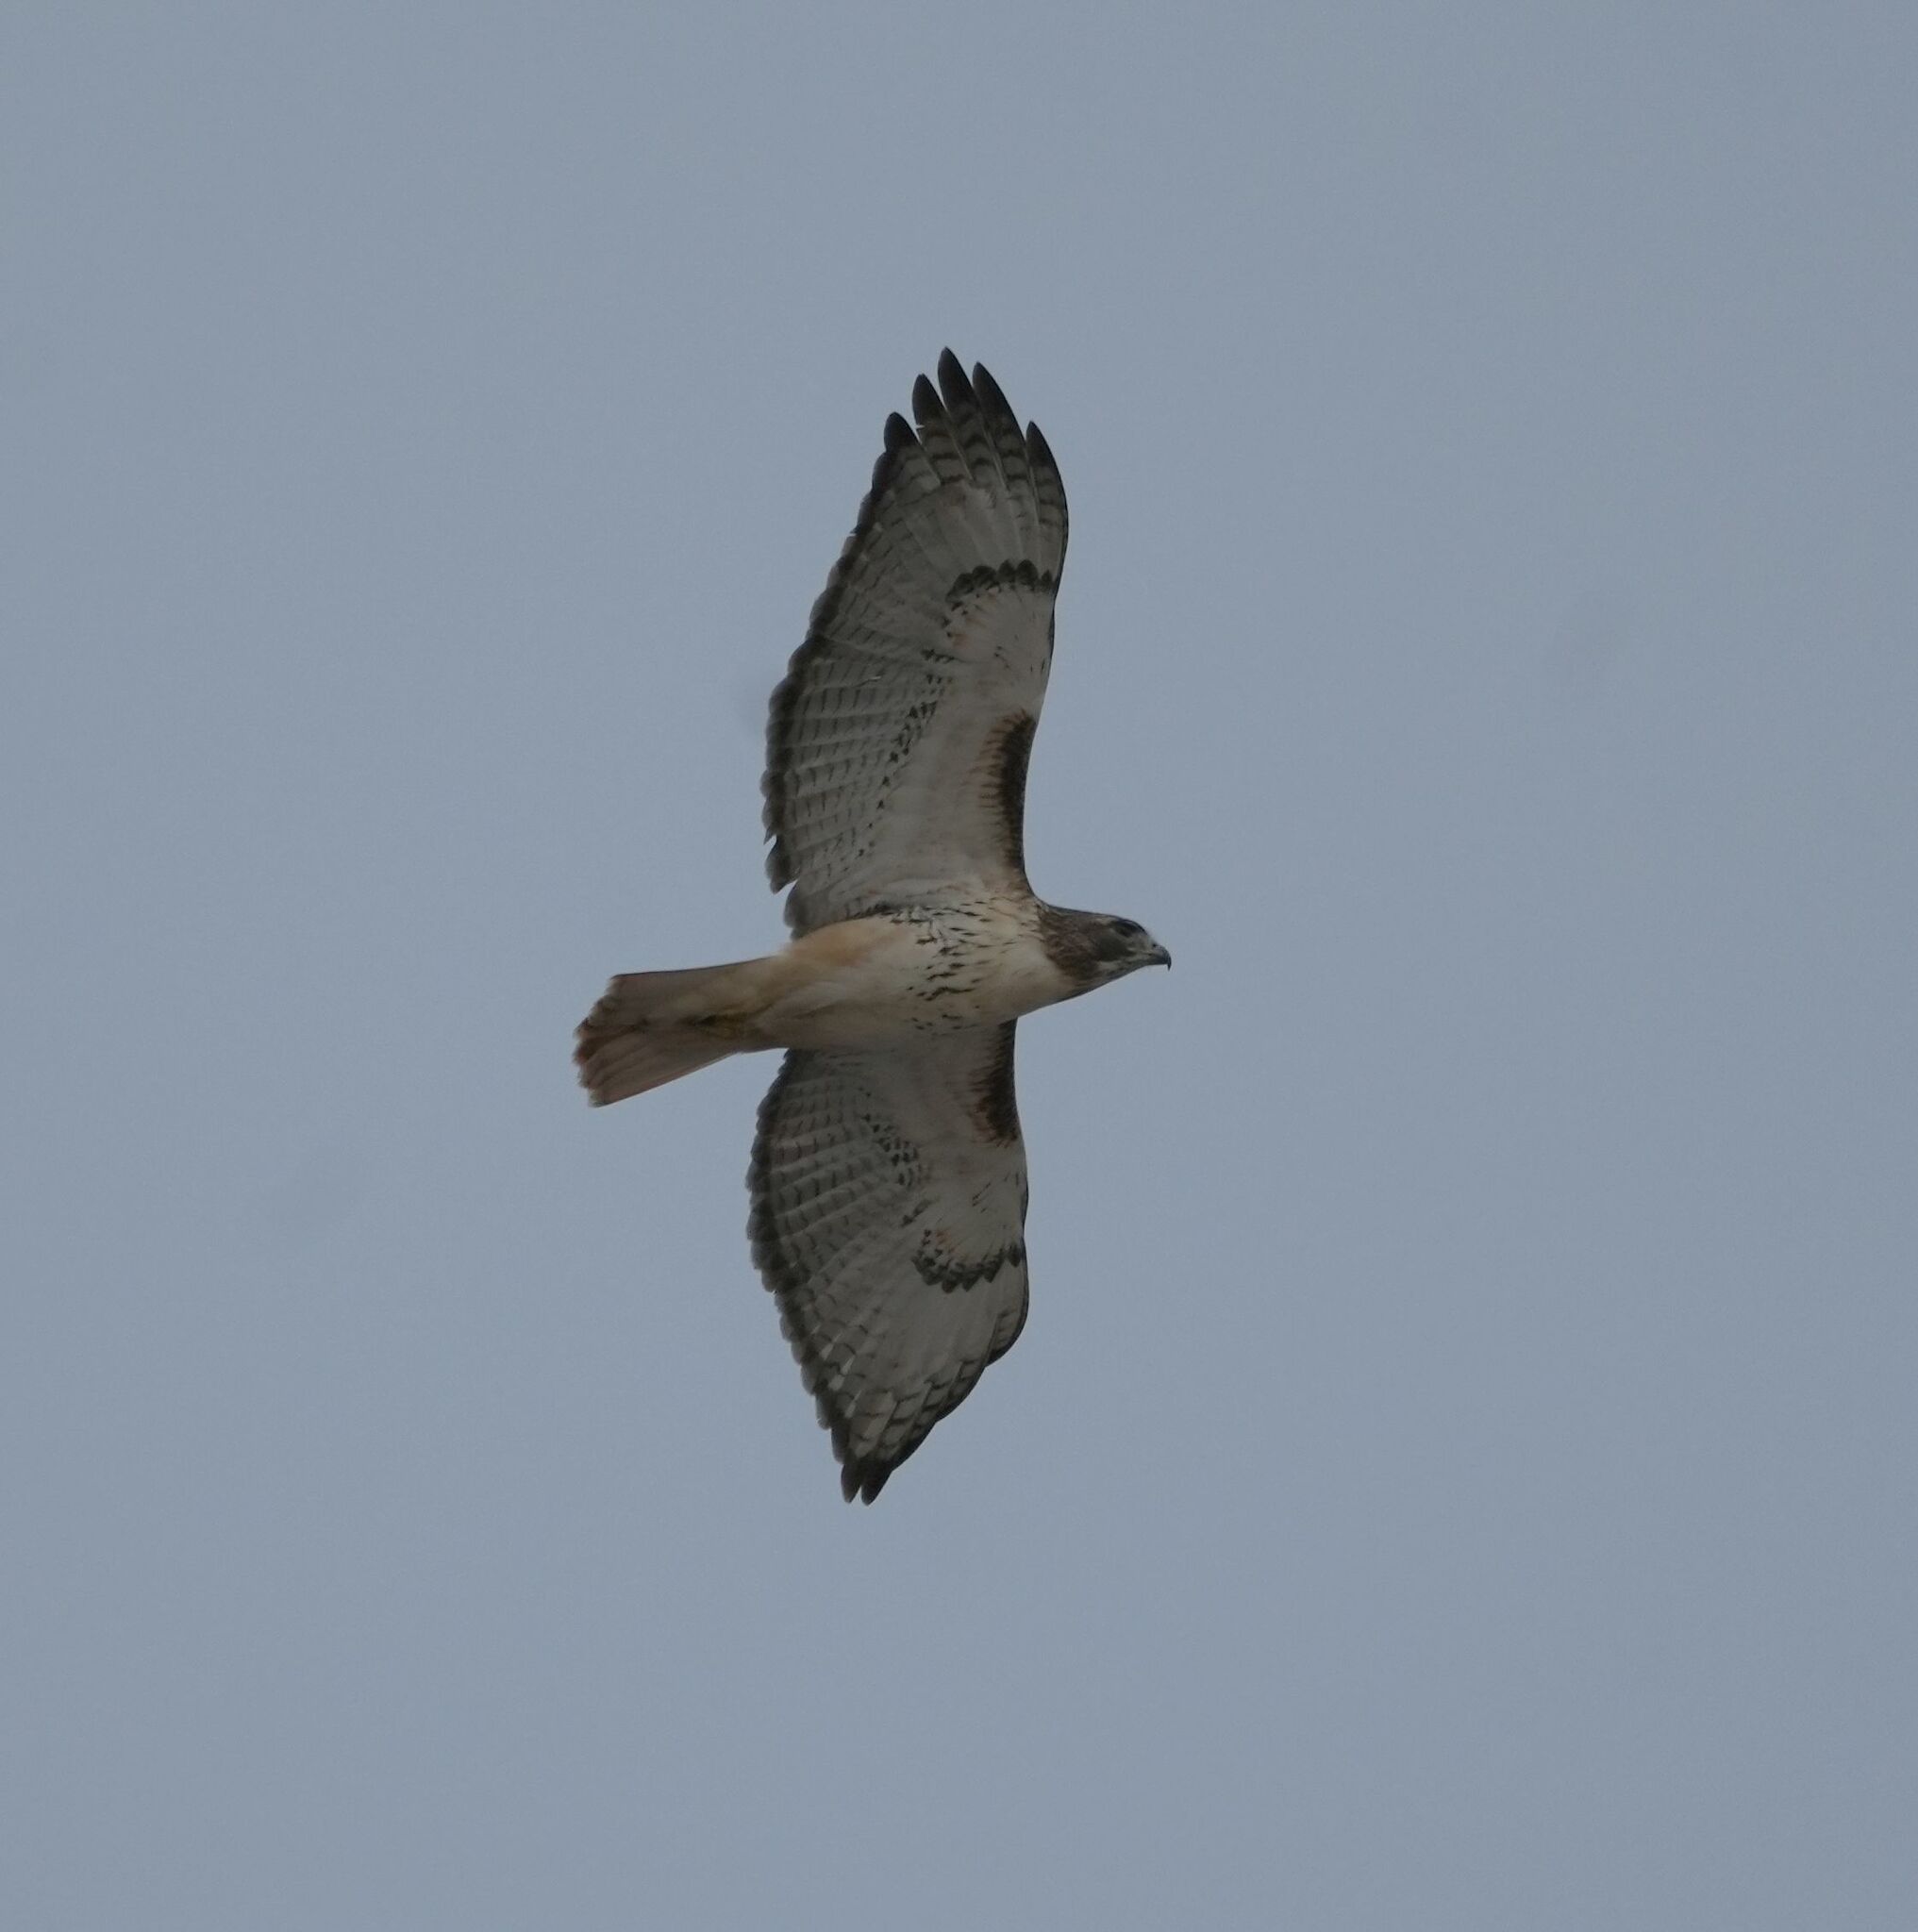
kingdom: Animalia
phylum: Chordata
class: Aves
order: Accipitriformes
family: Accipitridae
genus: Buteo
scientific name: Buteo jamaicensis
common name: Red-tailed hawk
